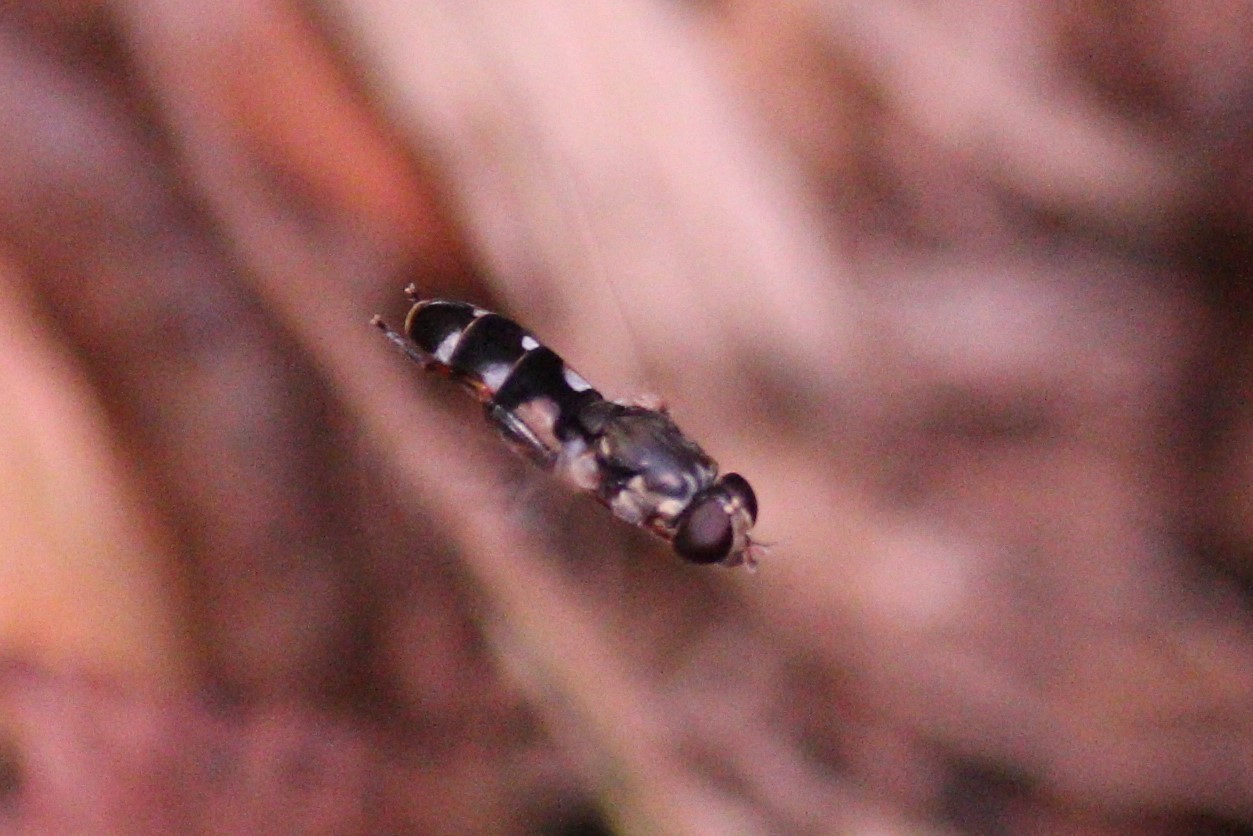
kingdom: Animalia
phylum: Arthropoda
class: Insecta
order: Diptera
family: Syrphidae
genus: Syritta
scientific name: Syritta pipiens
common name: Hover fly
